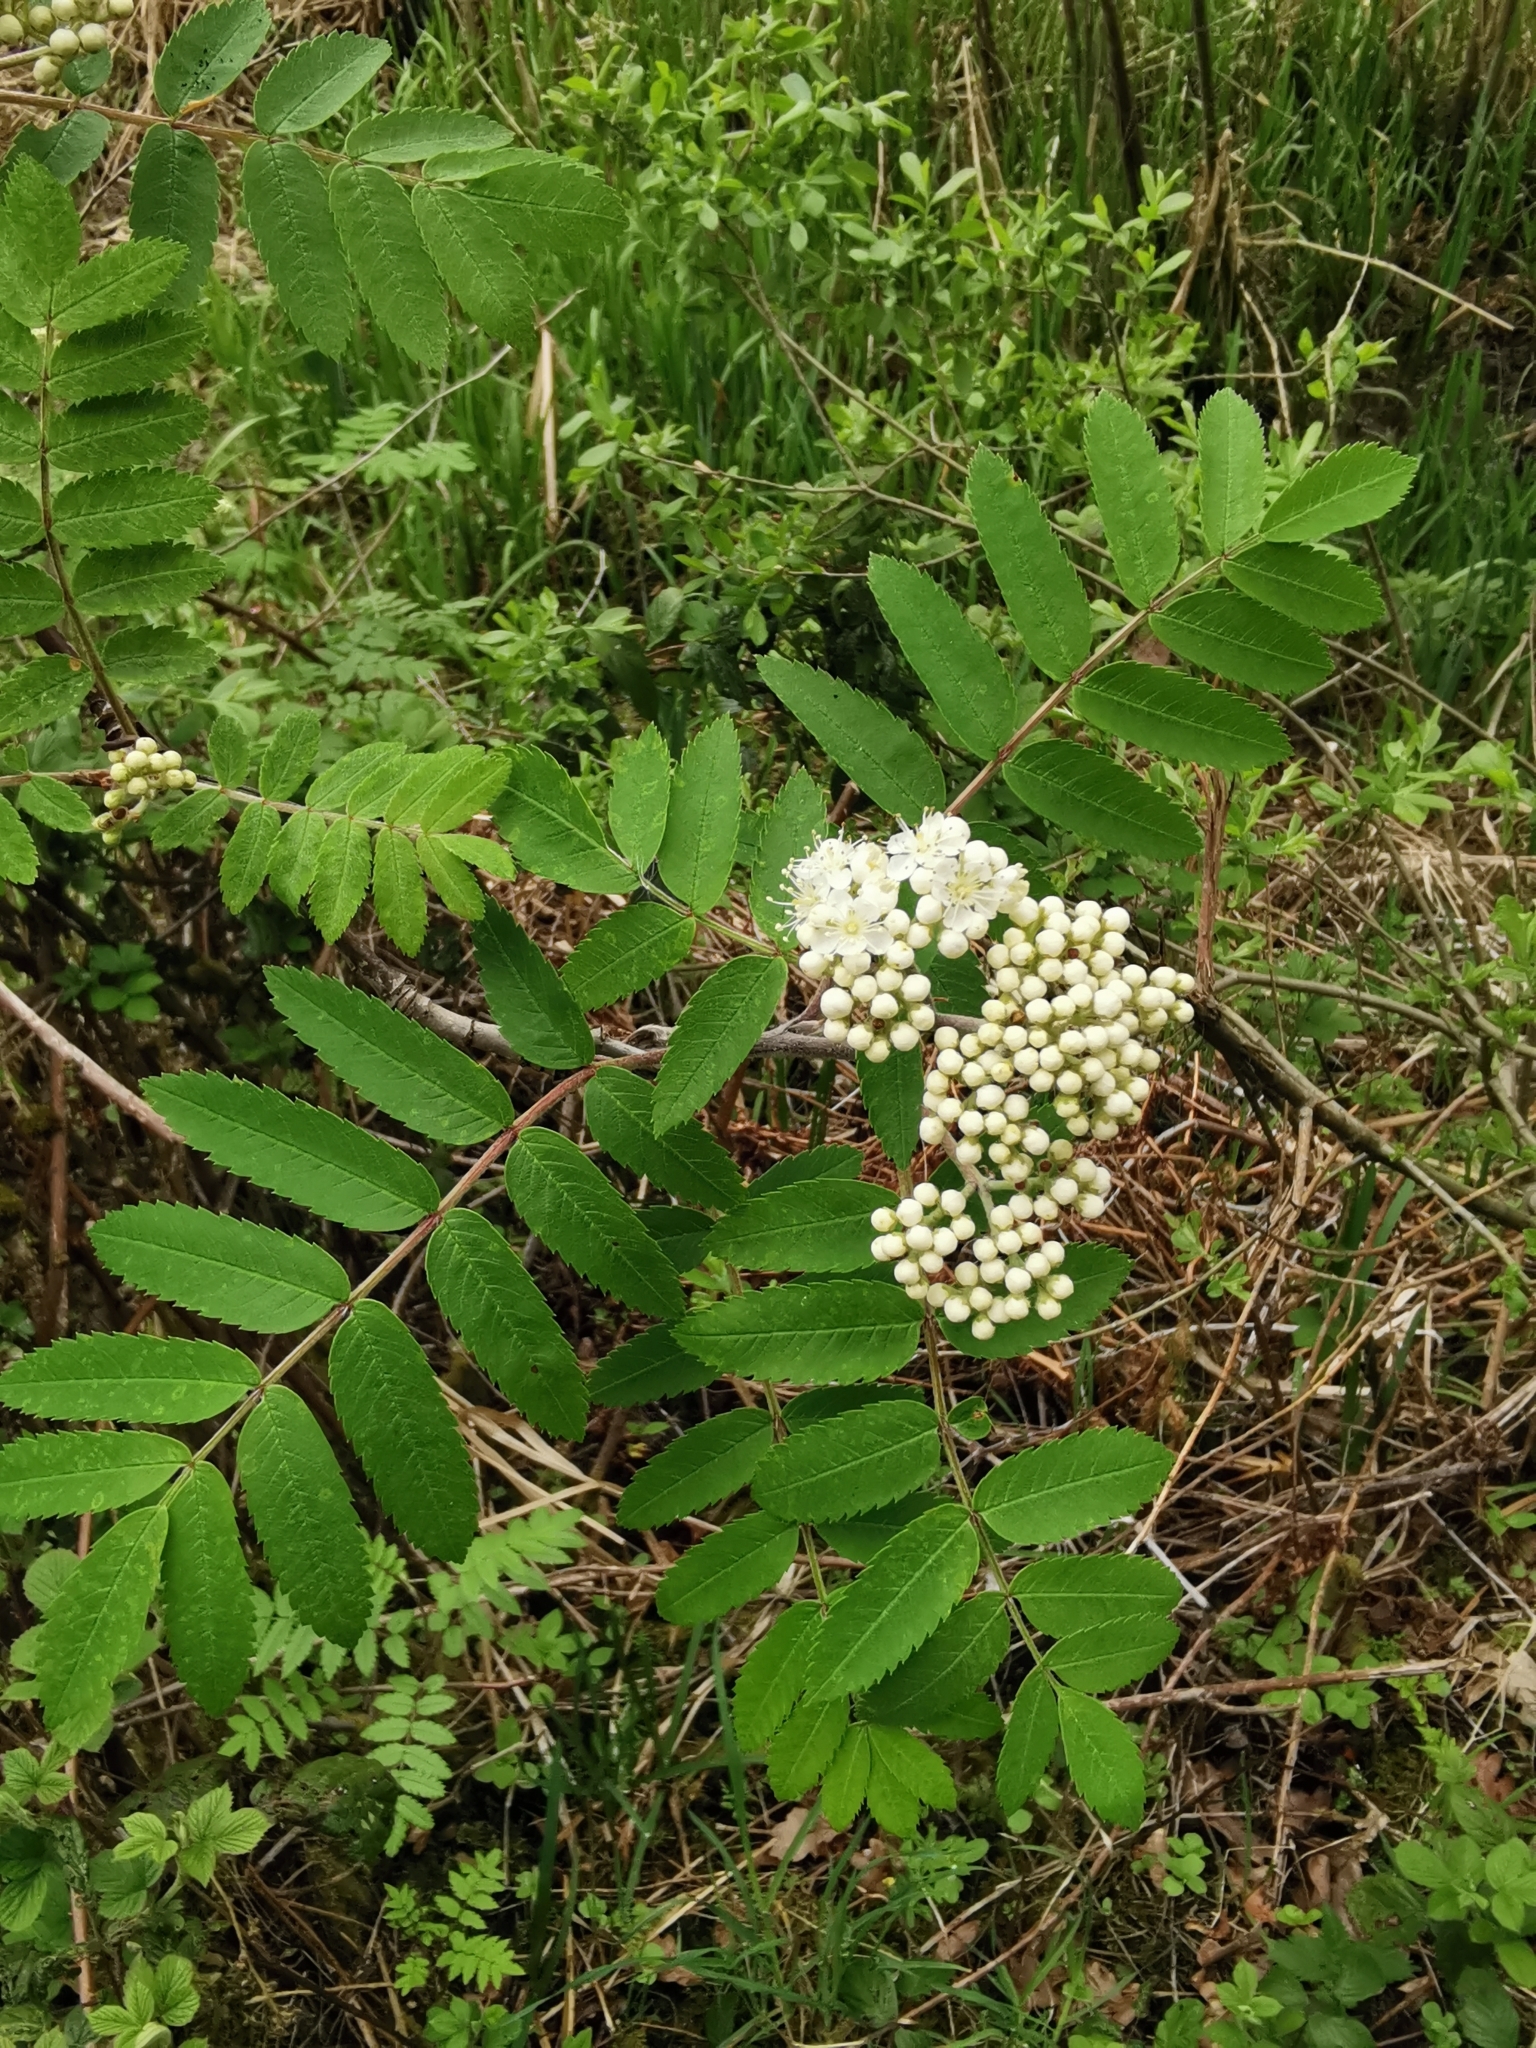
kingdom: Plantae
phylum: Tracheophyta
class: Magnoliopsida
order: Rosales
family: Rosaceae
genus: Sorbus
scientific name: Sorbus aucuparia
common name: Rowan
